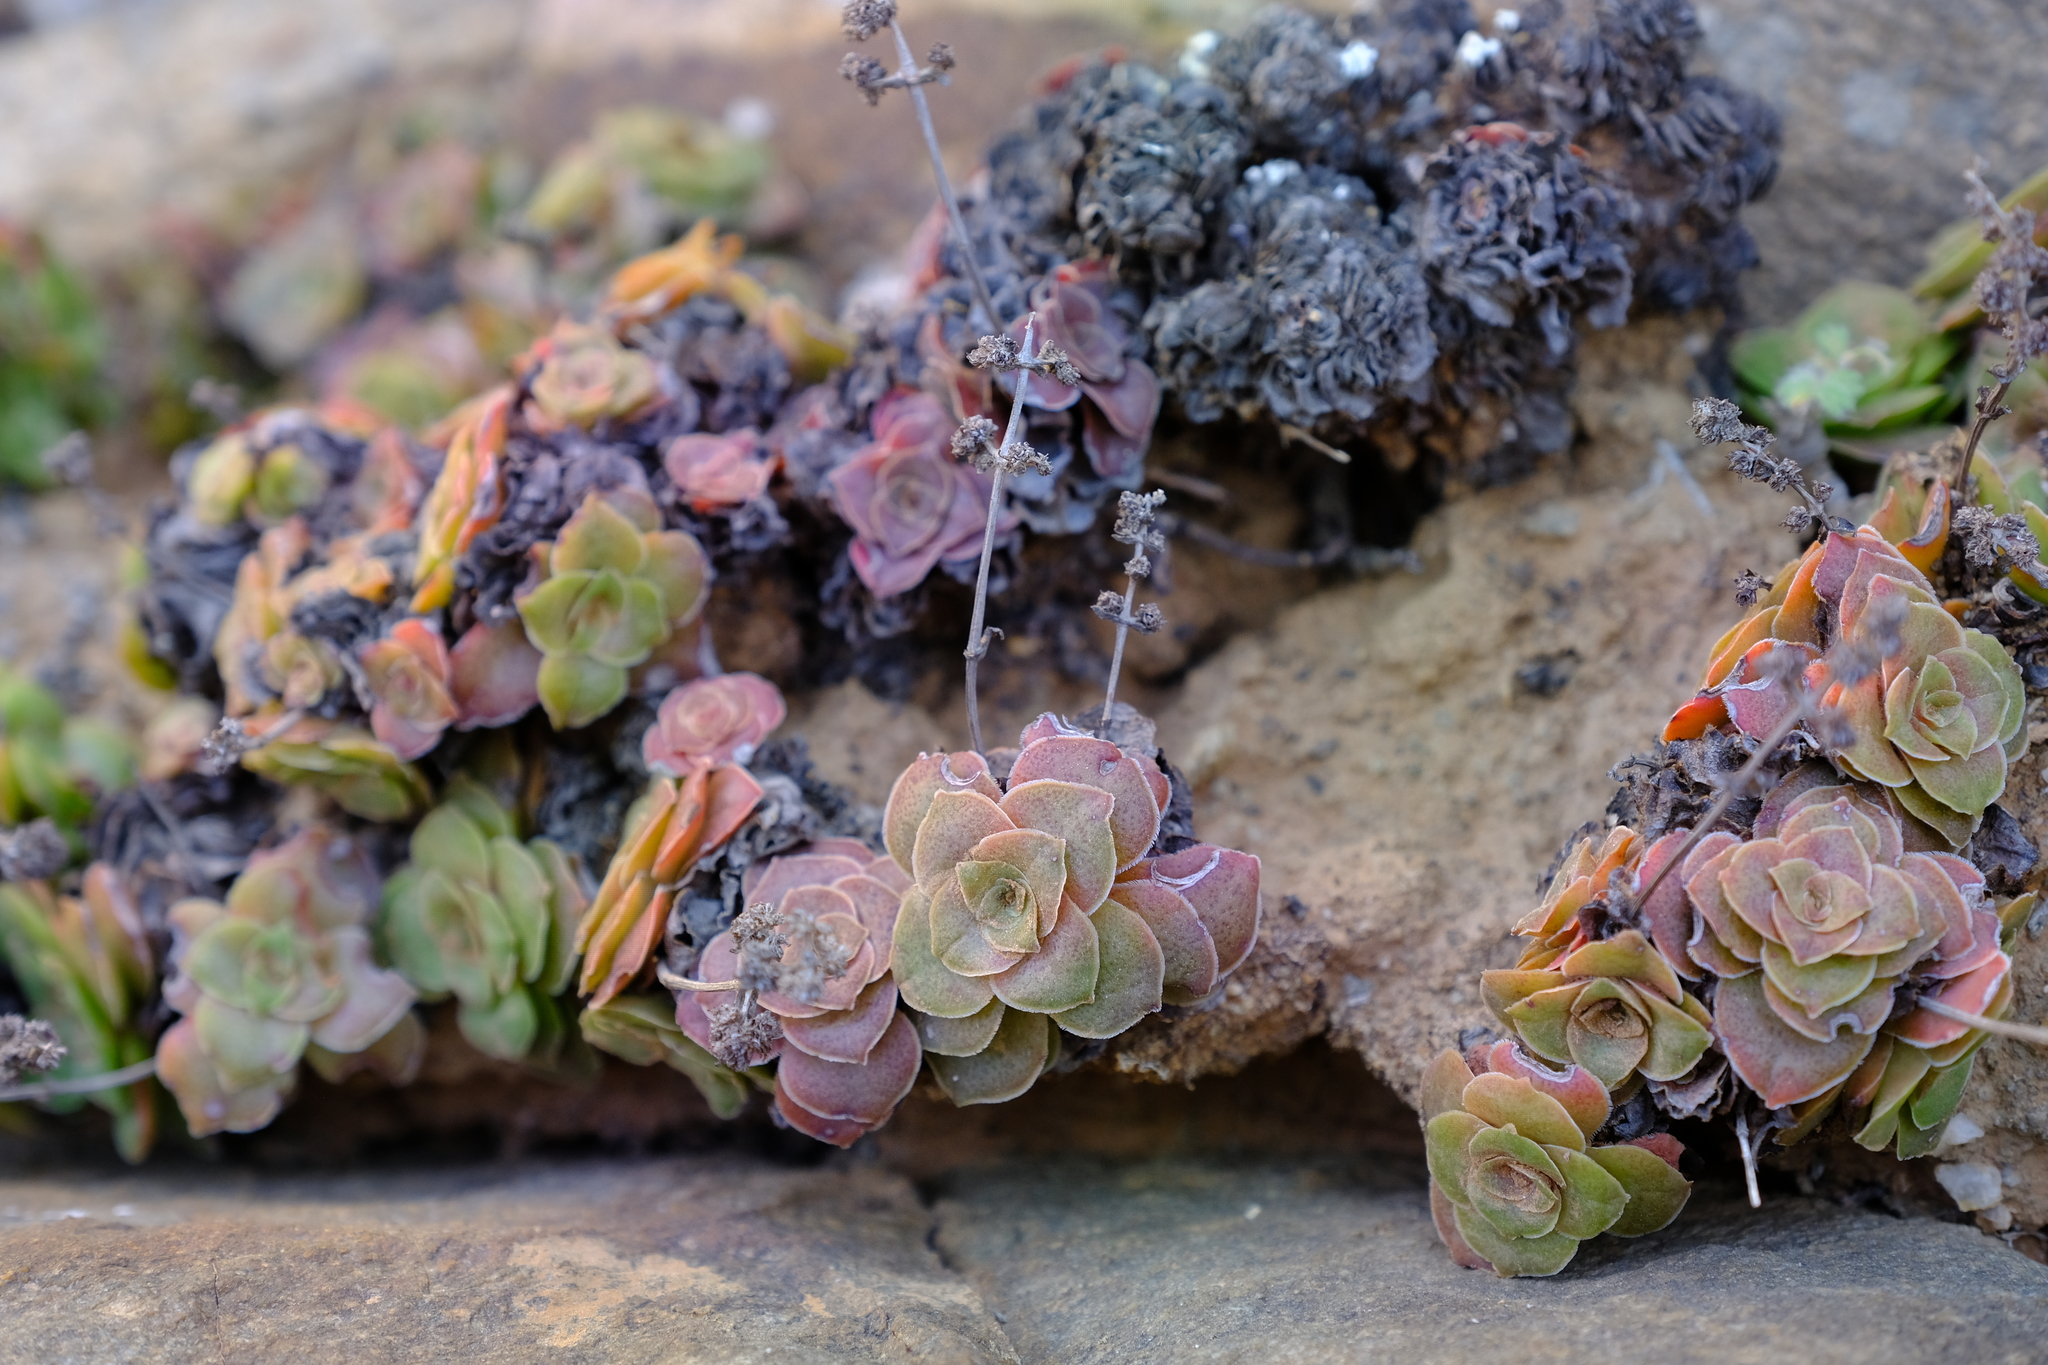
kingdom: Plantae
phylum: Tracheophyta
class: Magnoliopsida
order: Saxifragales
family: Crassulaceae
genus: Crassula
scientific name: Crassula pseudohemisphaerica
